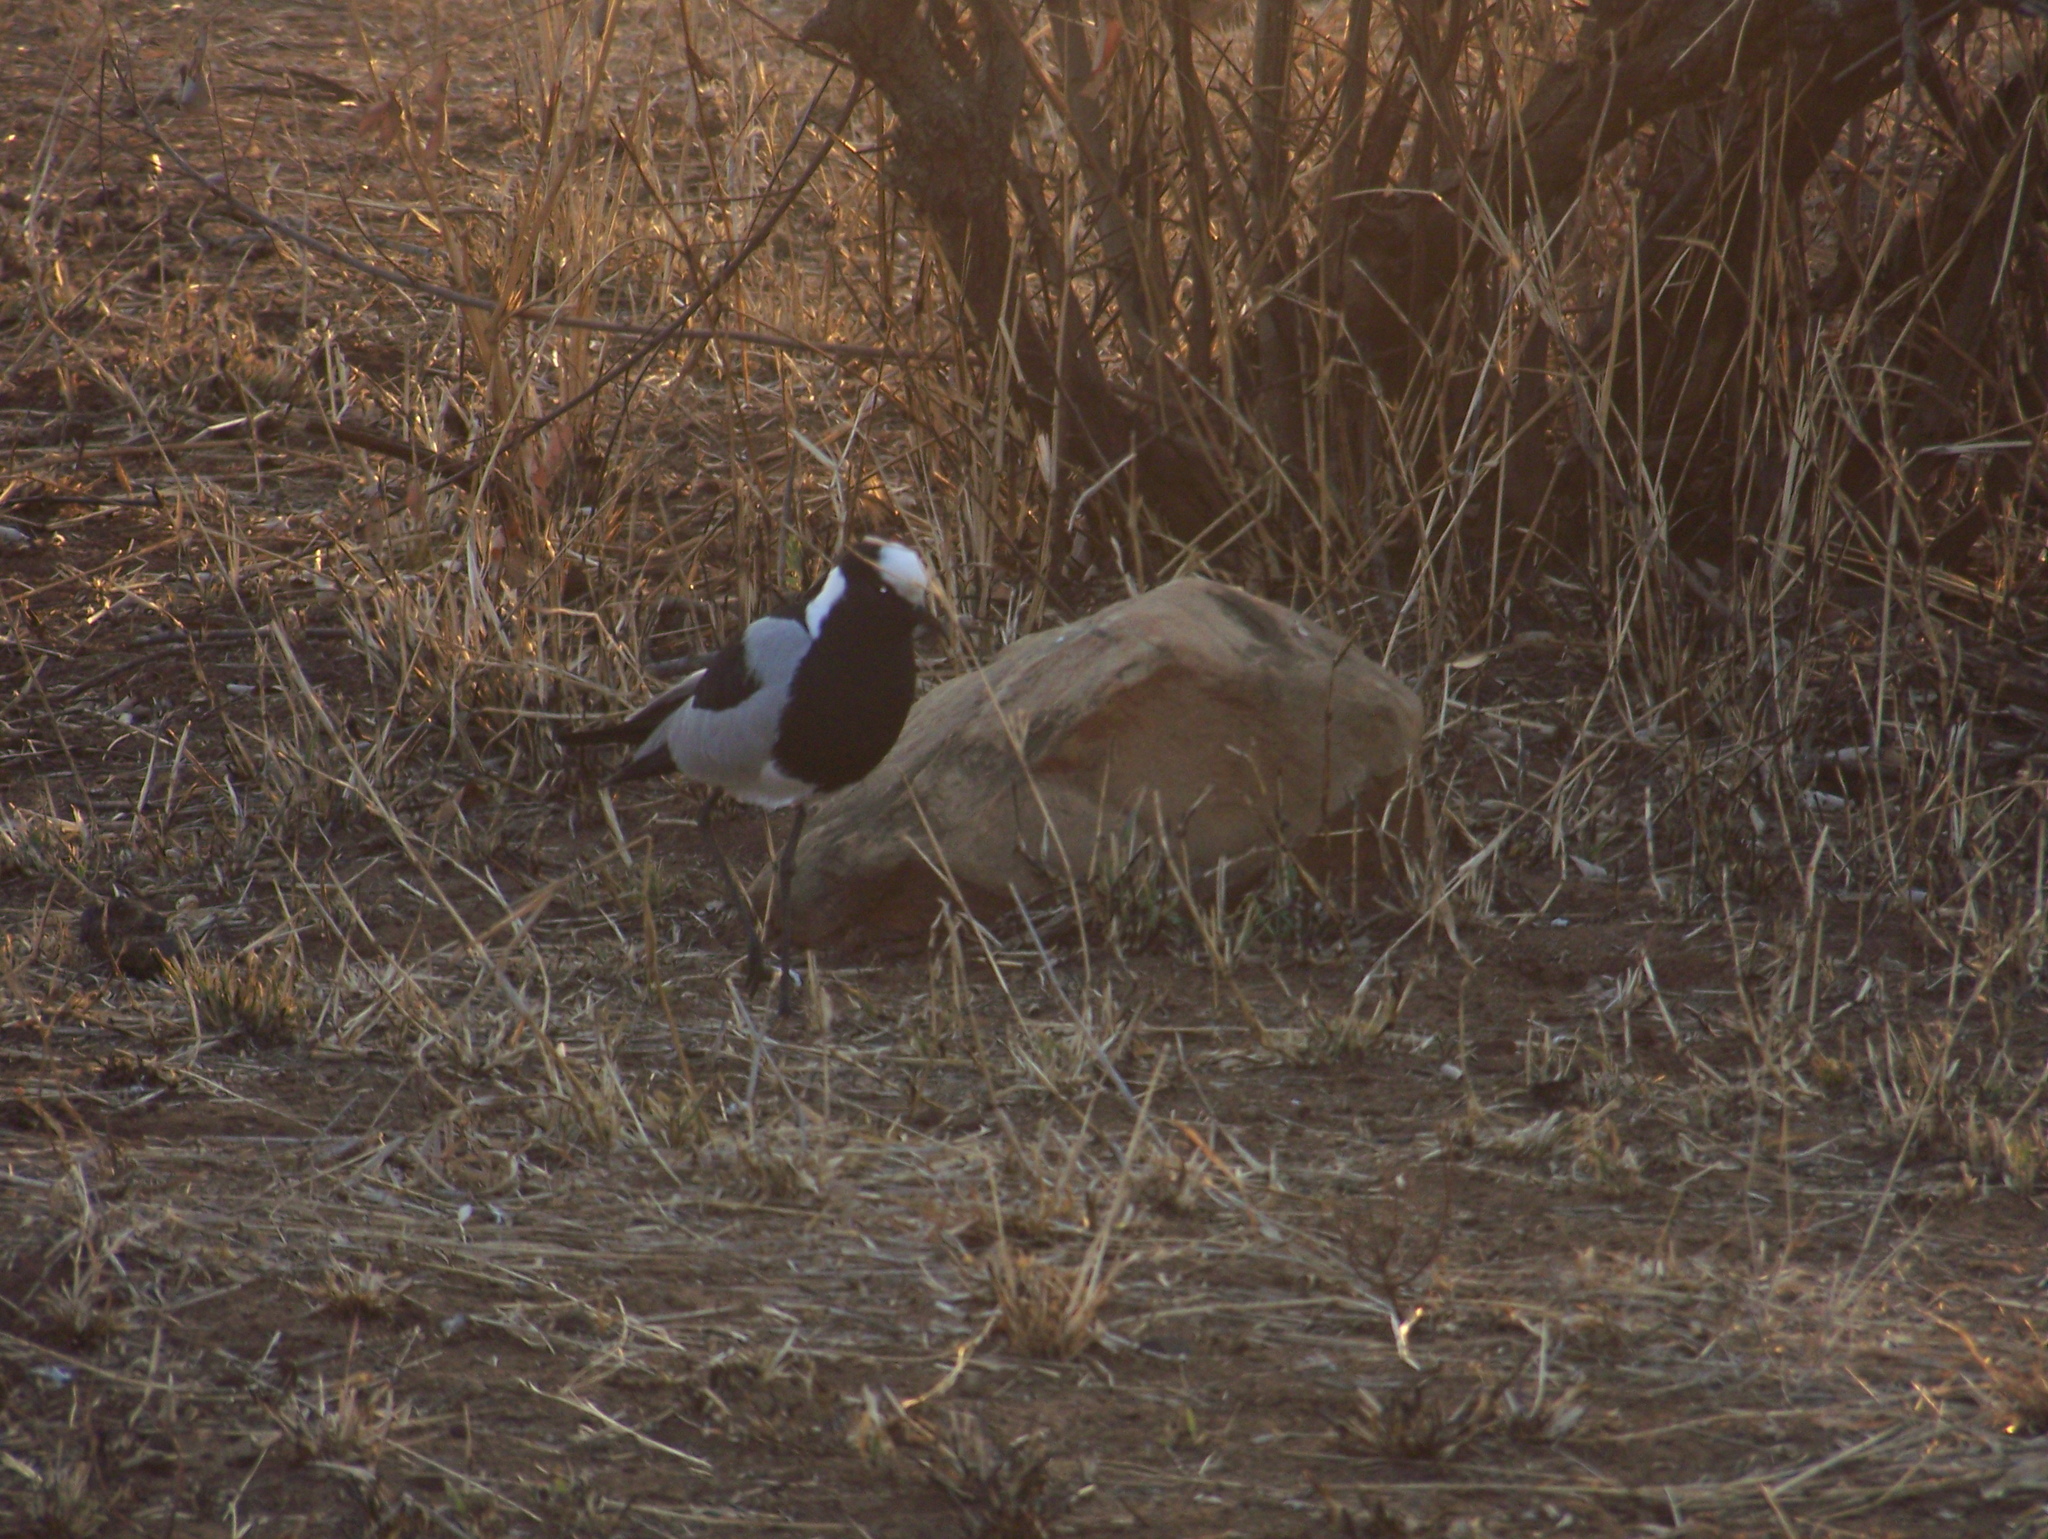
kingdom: Animalia
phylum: Chordata
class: Aves
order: Charadriiformes
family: Charadriidae
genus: Vanellus
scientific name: Vanellus armatus
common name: Blacksmith lapwing
